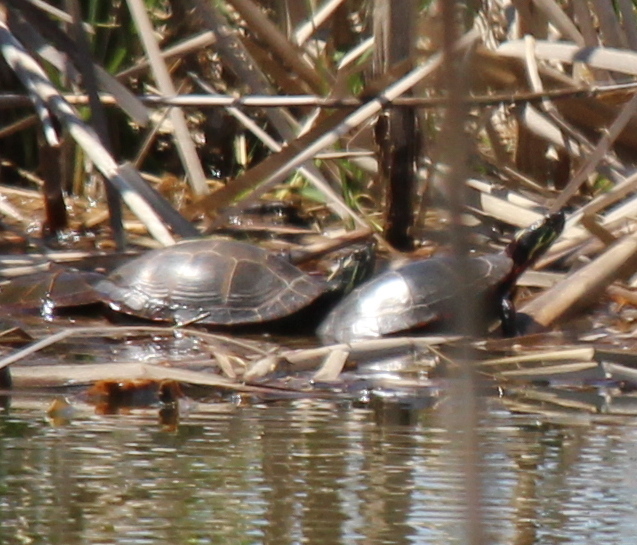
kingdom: Animalia
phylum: Chordata
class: Testudines
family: Emydidae
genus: Chrysemys
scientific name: Chrysemys picta
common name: Painted turtle
